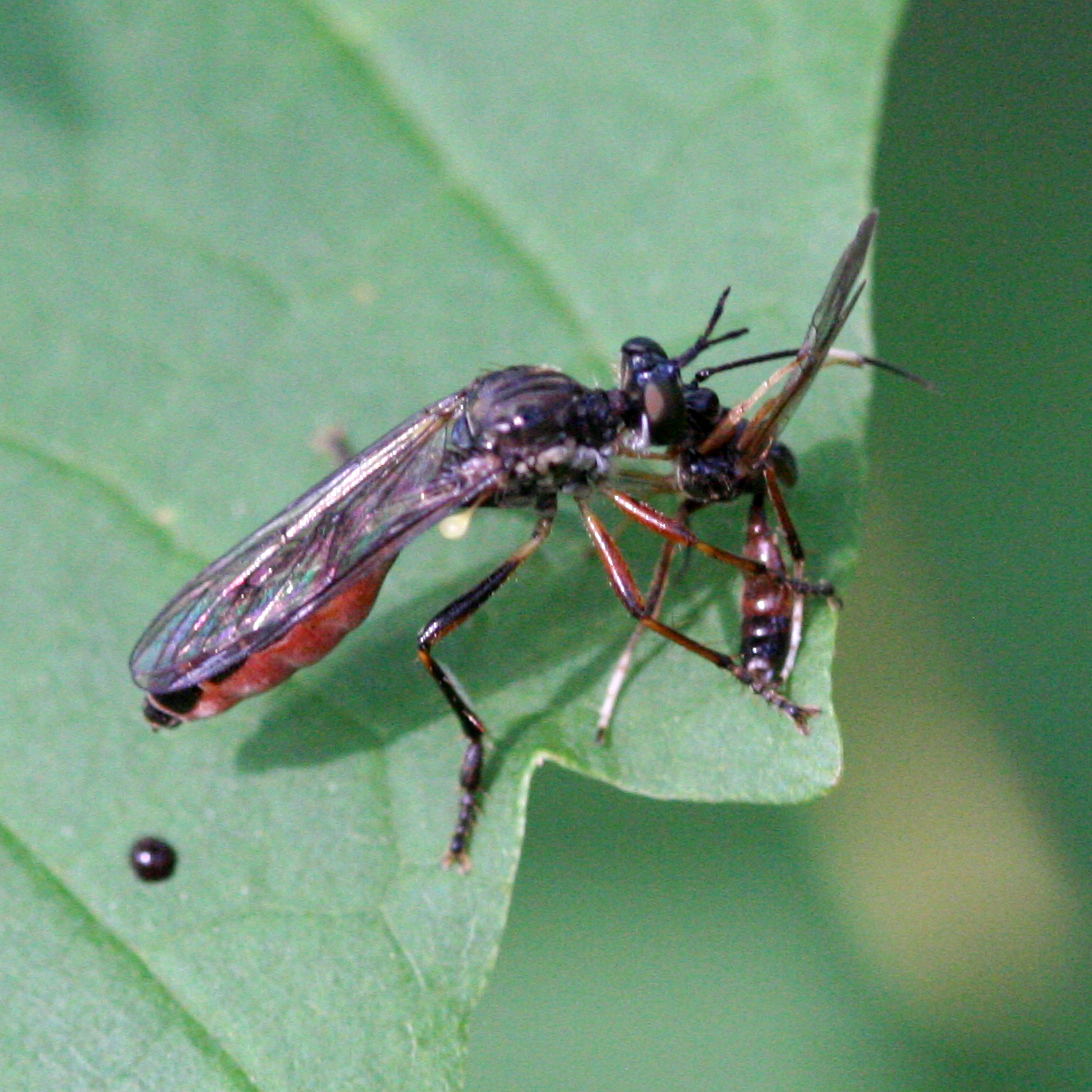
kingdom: Animalia
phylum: Arthropoda
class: Insecta
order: Diptera
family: Asilidae
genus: Dioctria
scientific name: Dioctria hyalipennis
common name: Stripe-legged robberfly
